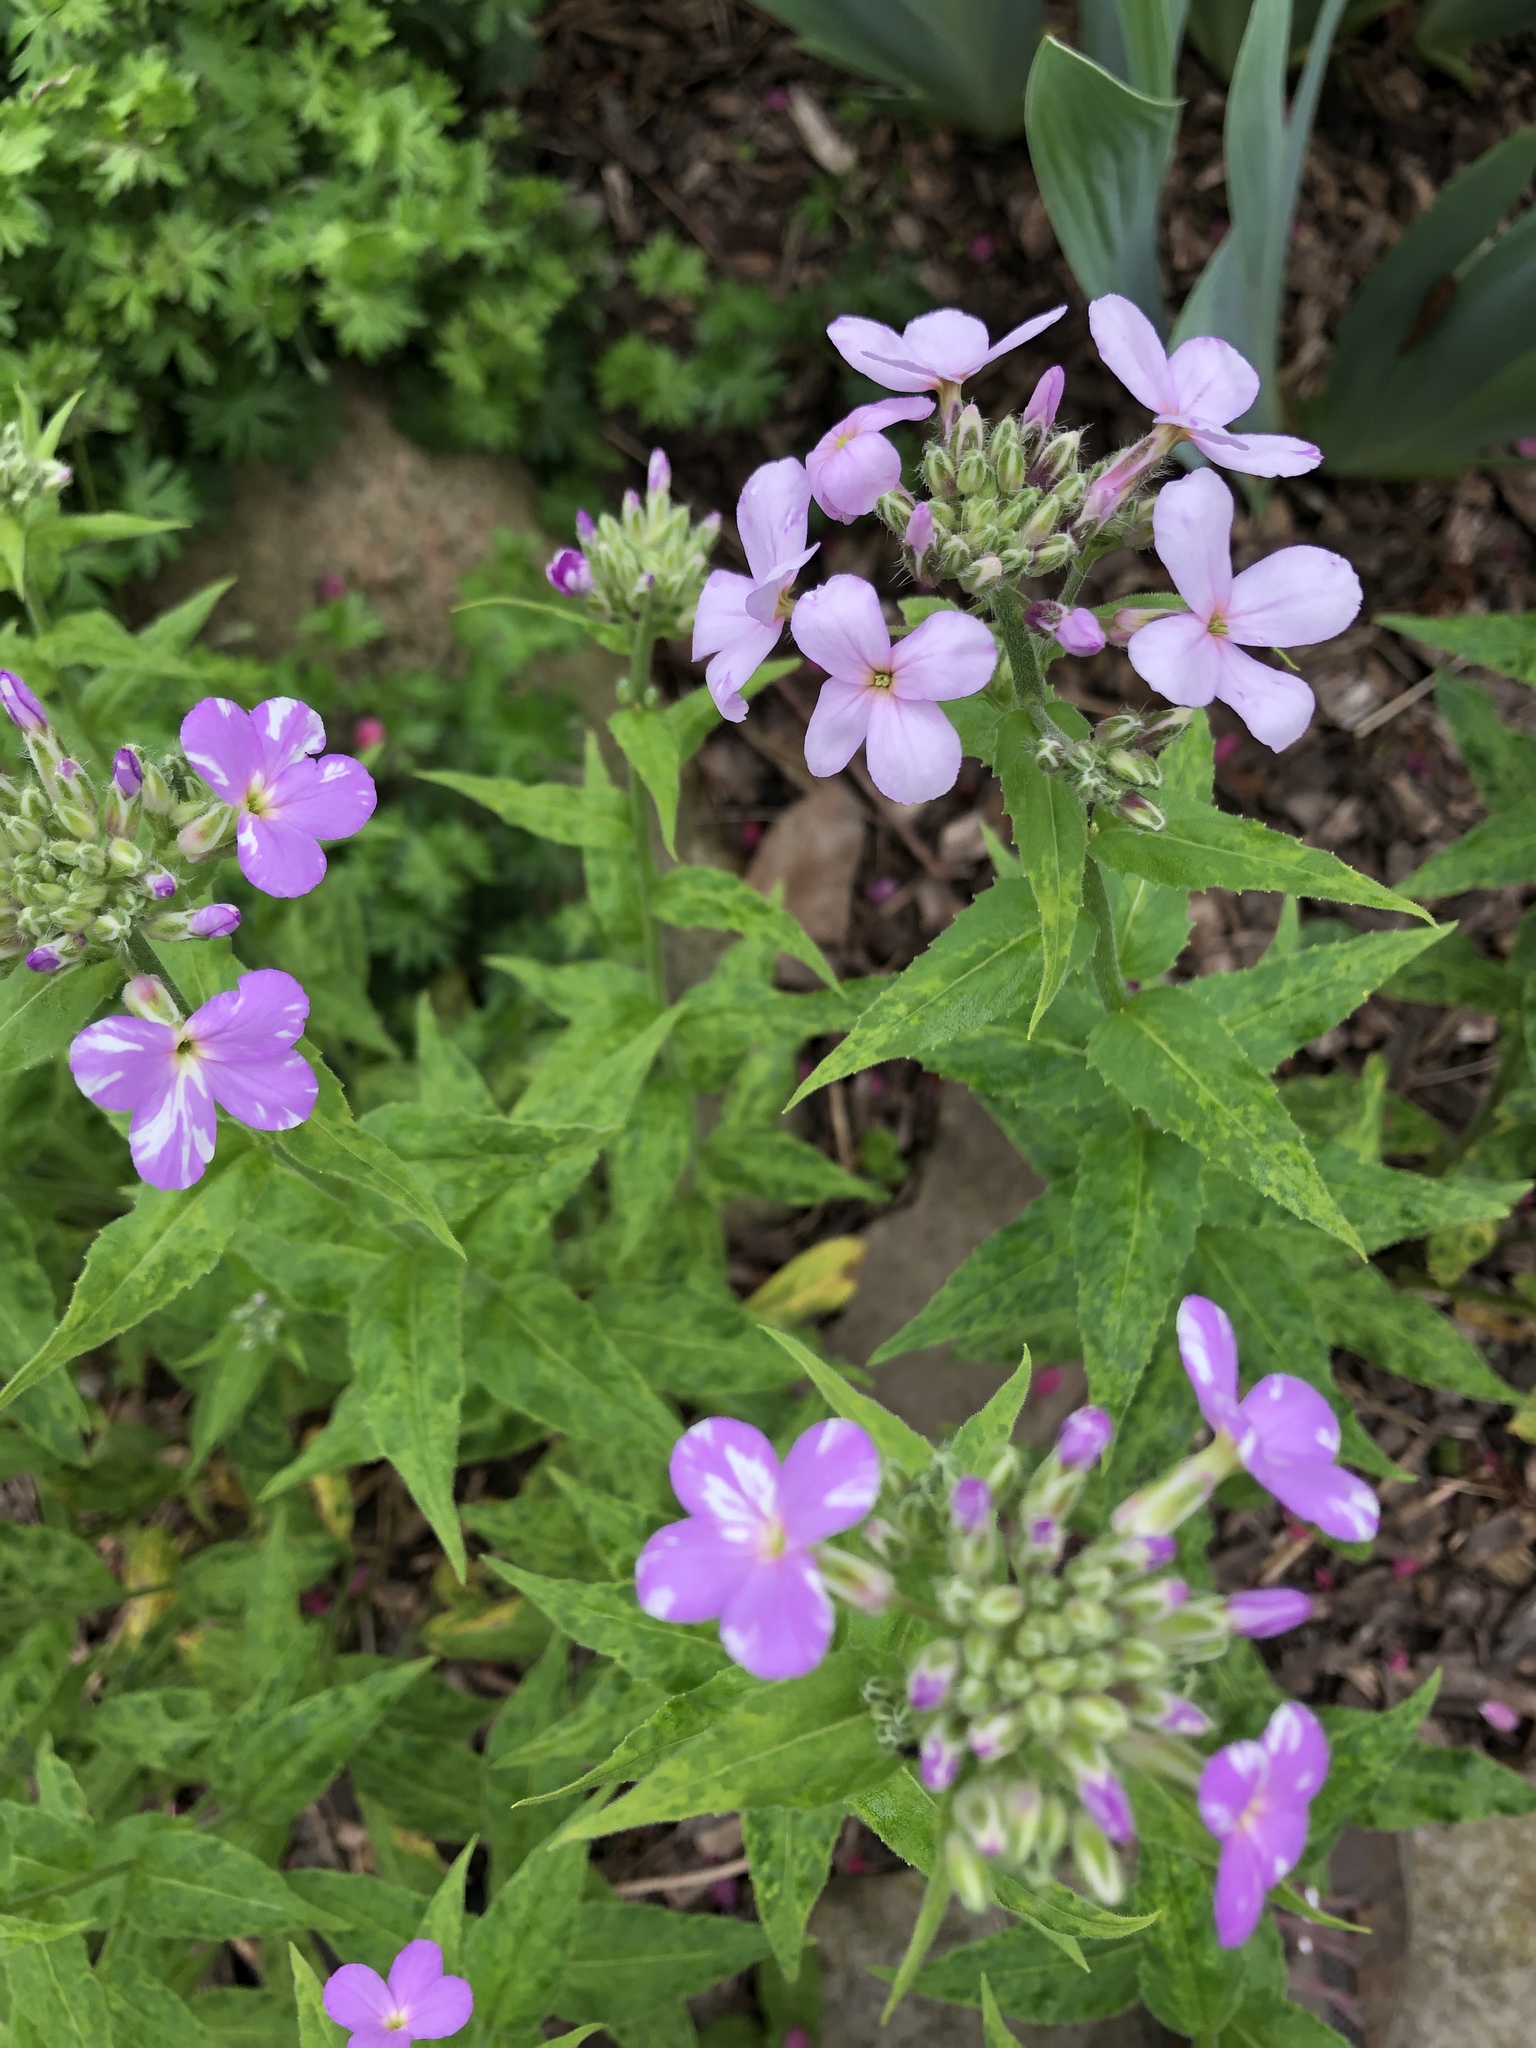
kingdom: Plantae
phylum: Tracheophyta
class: Magnoliopsida
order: Brassicales
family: Brassicaceae
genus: Hesperis
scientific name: Hesperis matronalis
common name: Dame's-violet
